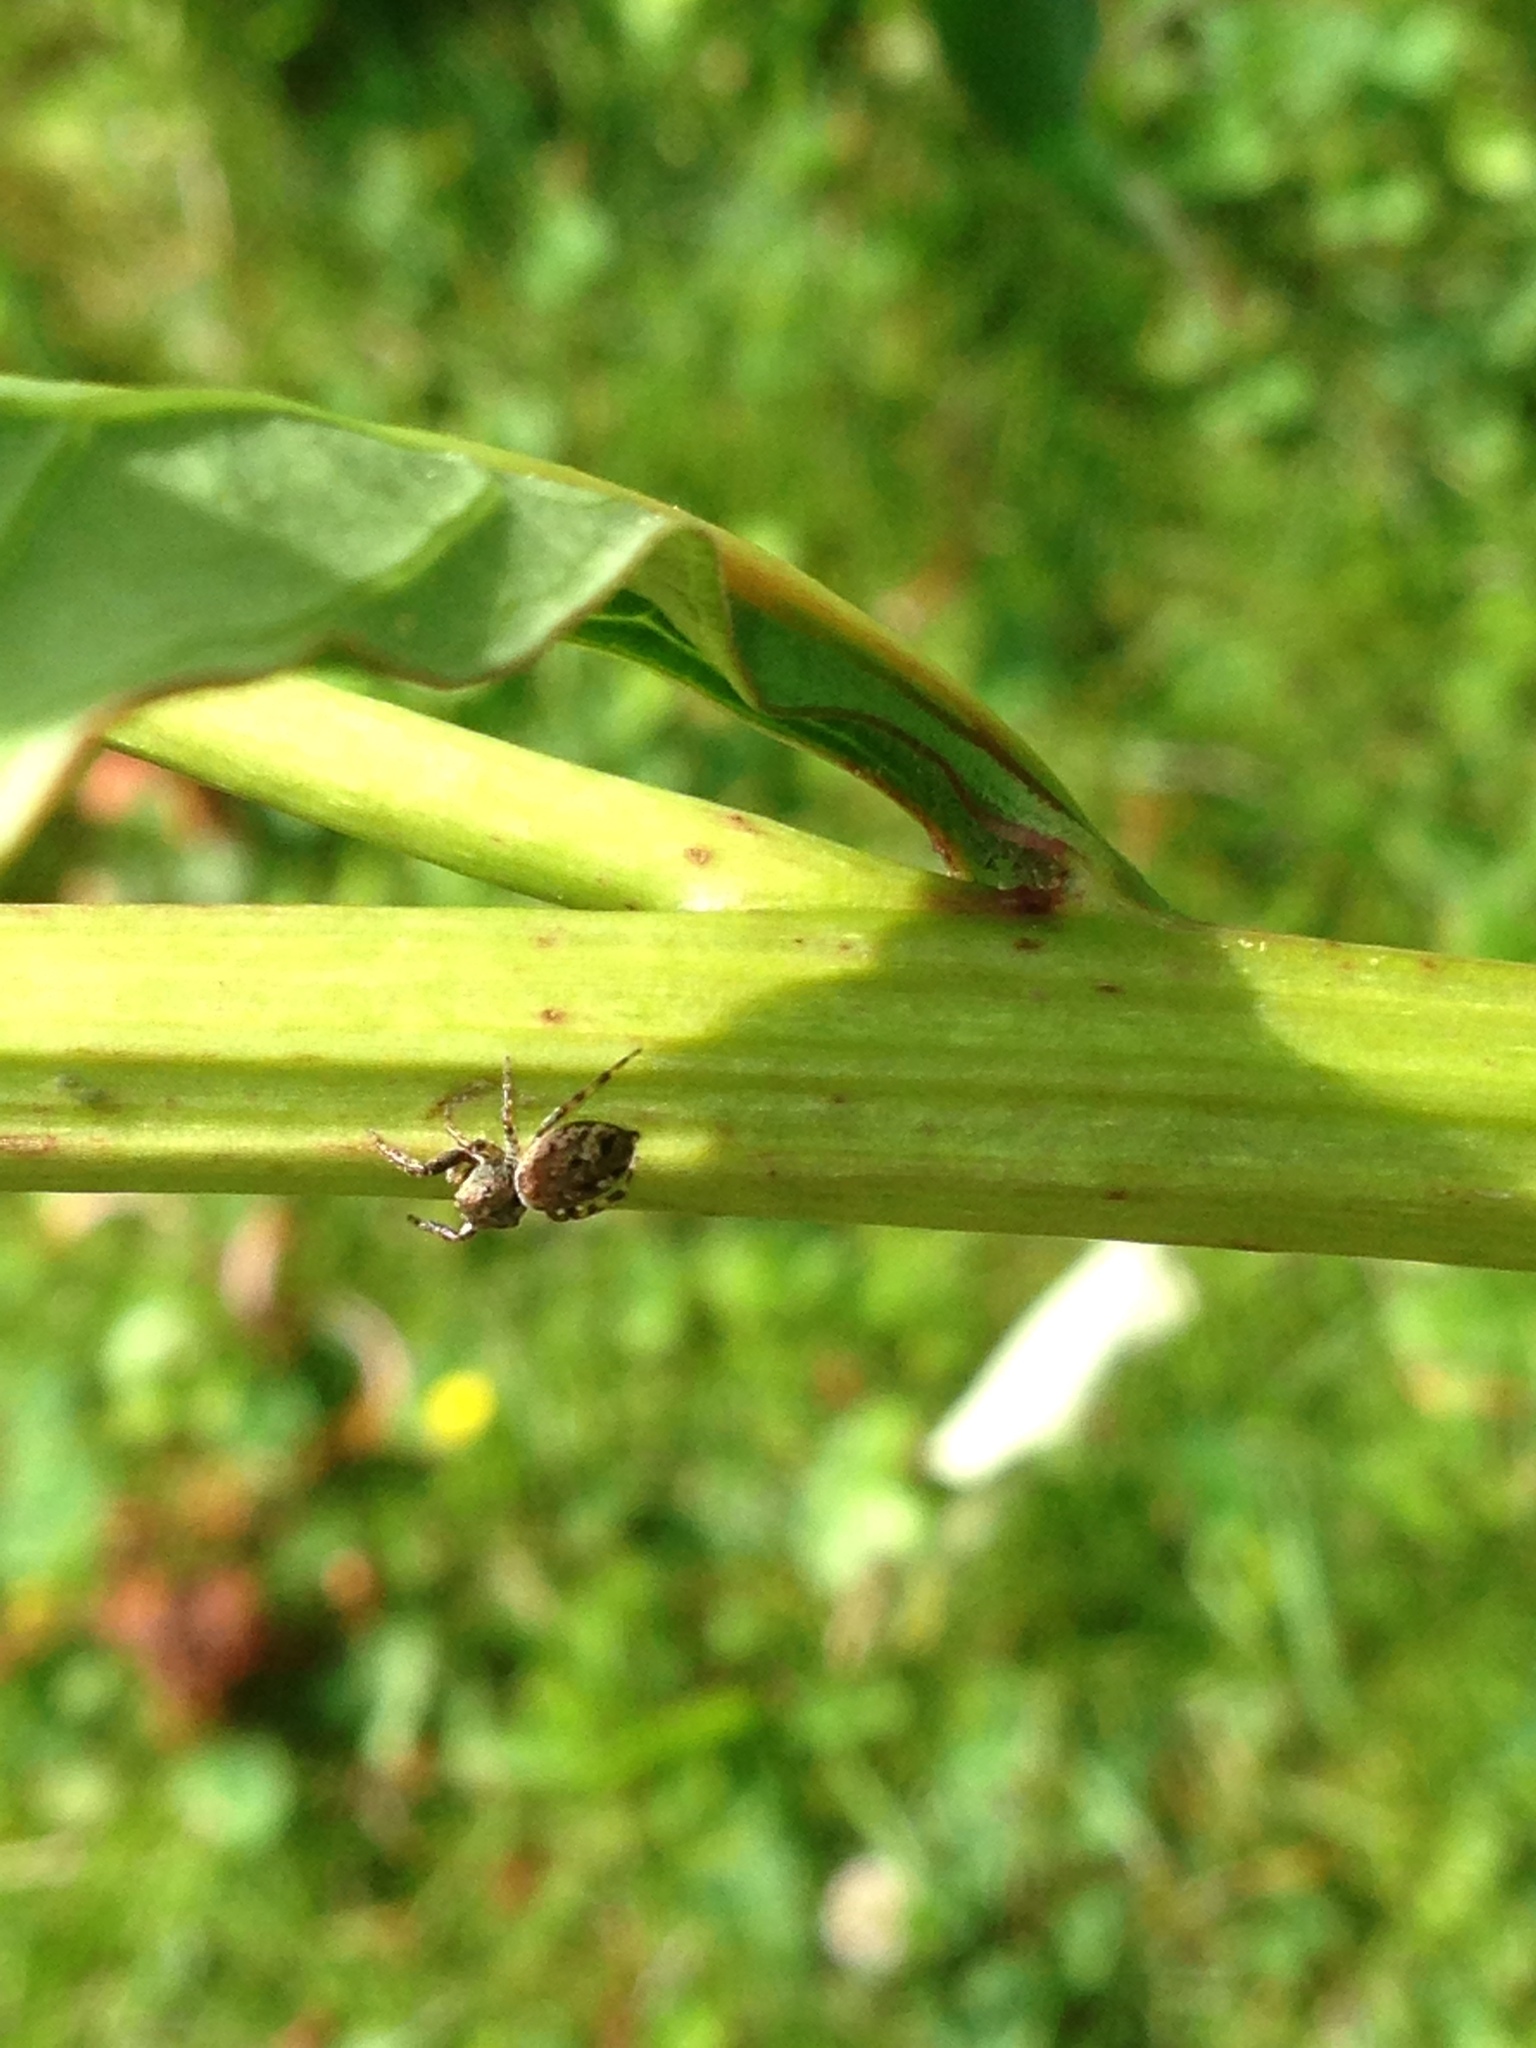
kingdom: Animalia
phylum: Arthropoda
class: Arachnida
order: Araneae
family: Salticidae
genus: Zygoballus
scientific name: Zygoballus nervosus
